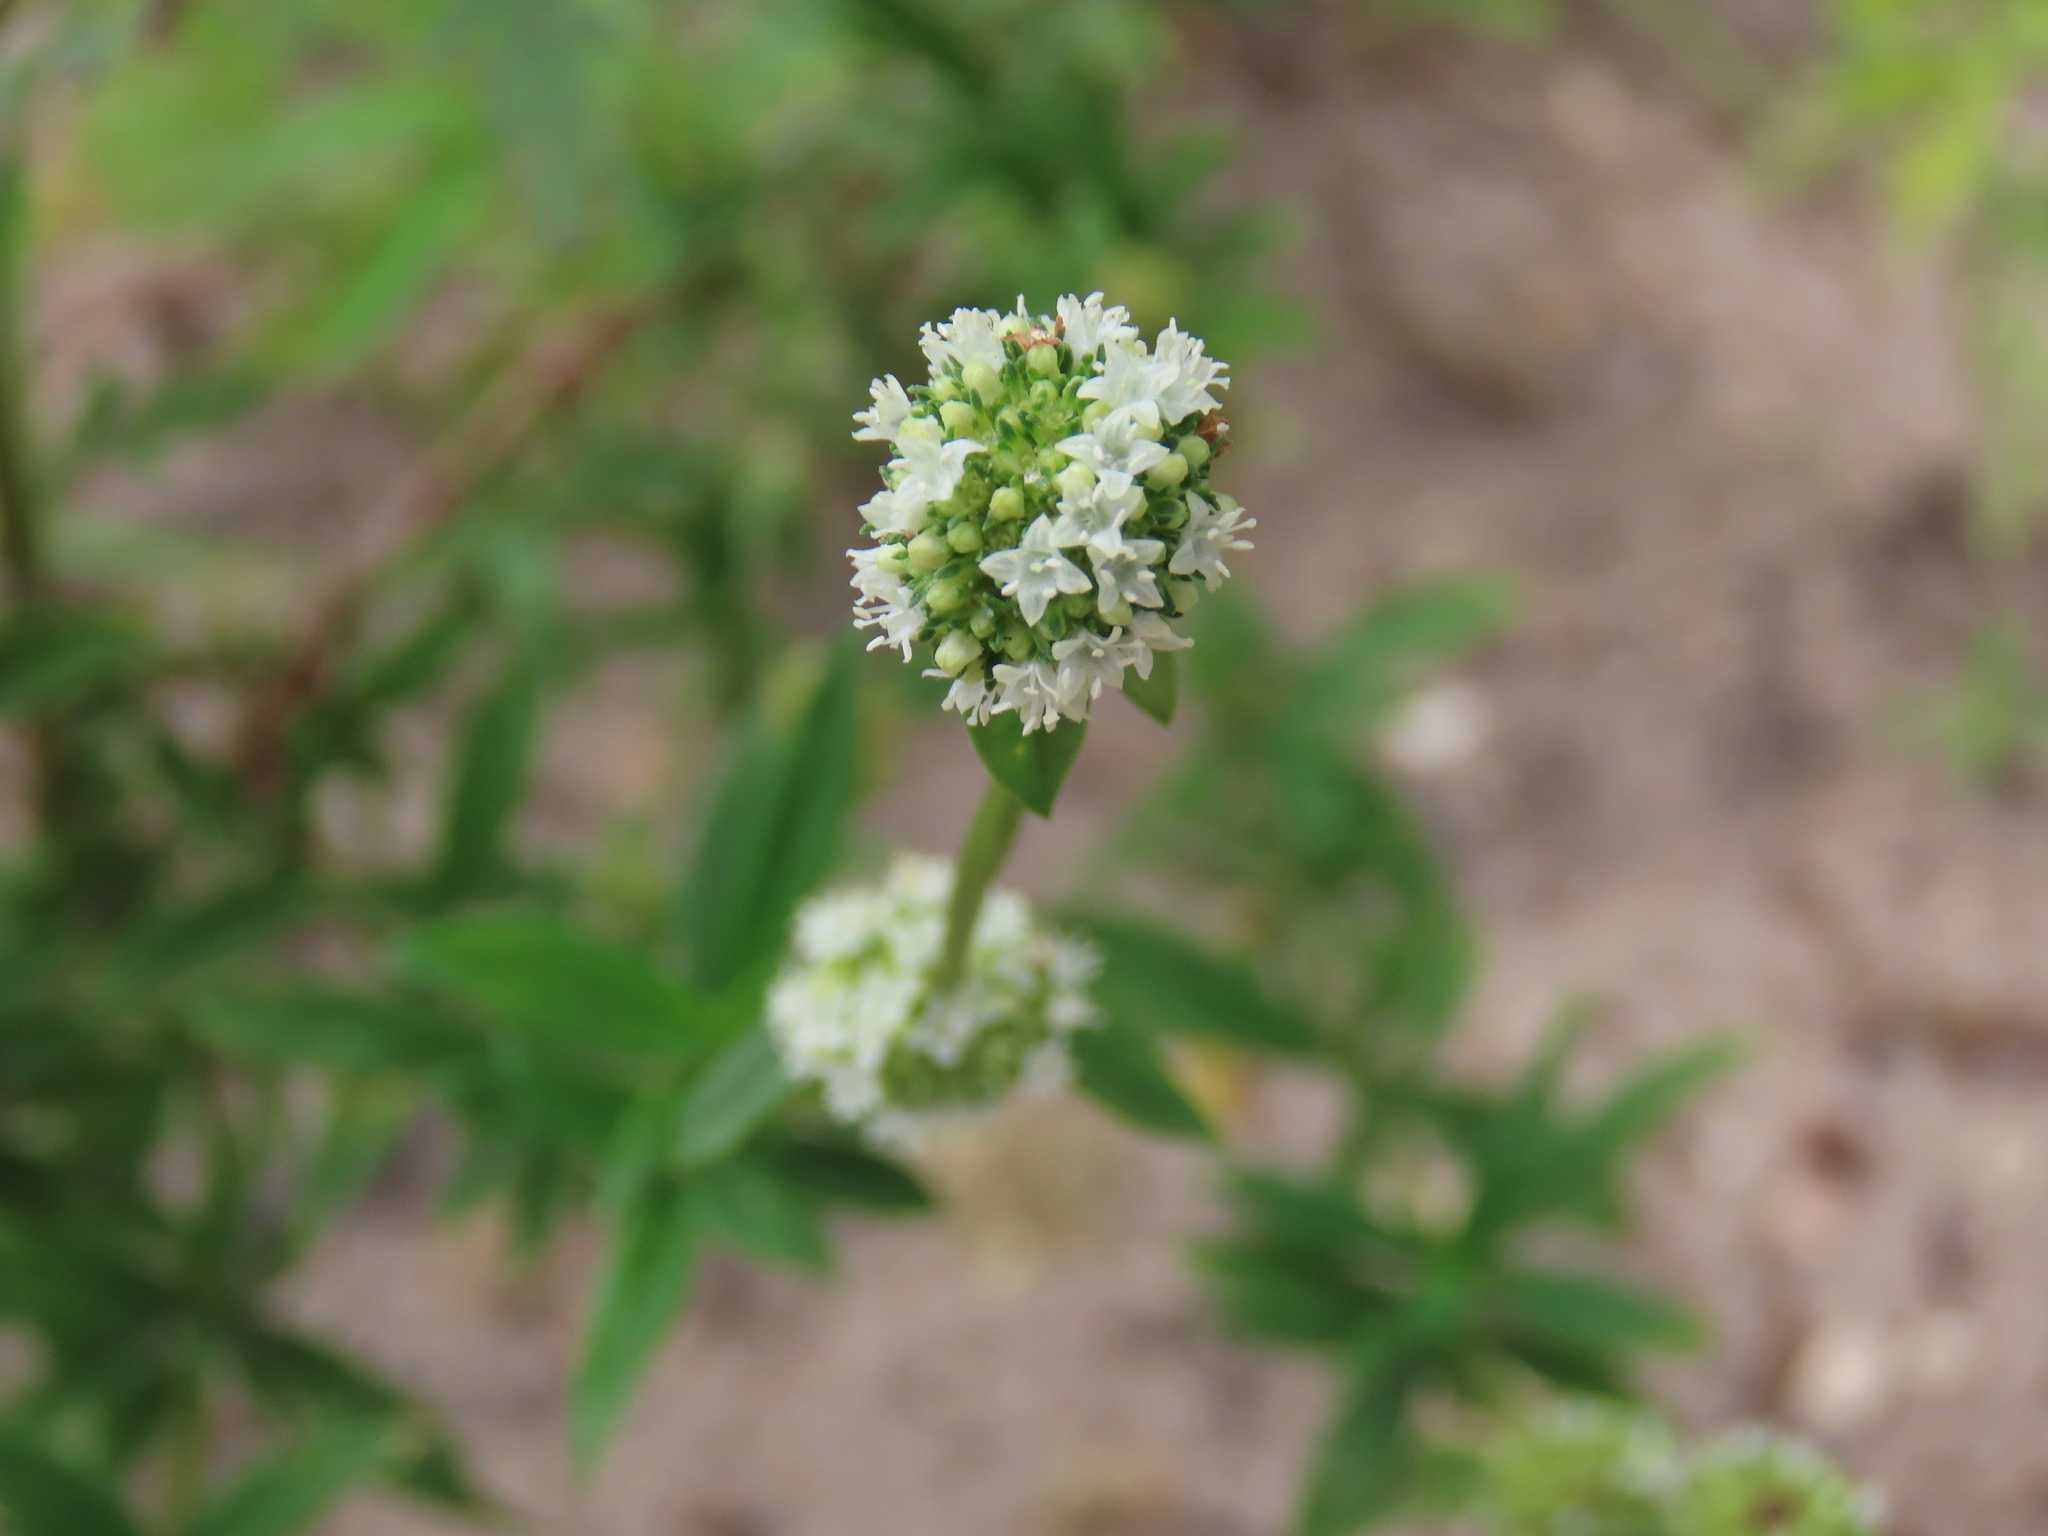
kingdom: Plantae
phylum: Tracheophyta
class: Magnoliopsida
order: Gentianales
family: Rubiaceae
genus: Spermacoce
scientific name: Spermacoce verticillata
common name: Shrubby false buttonweed
